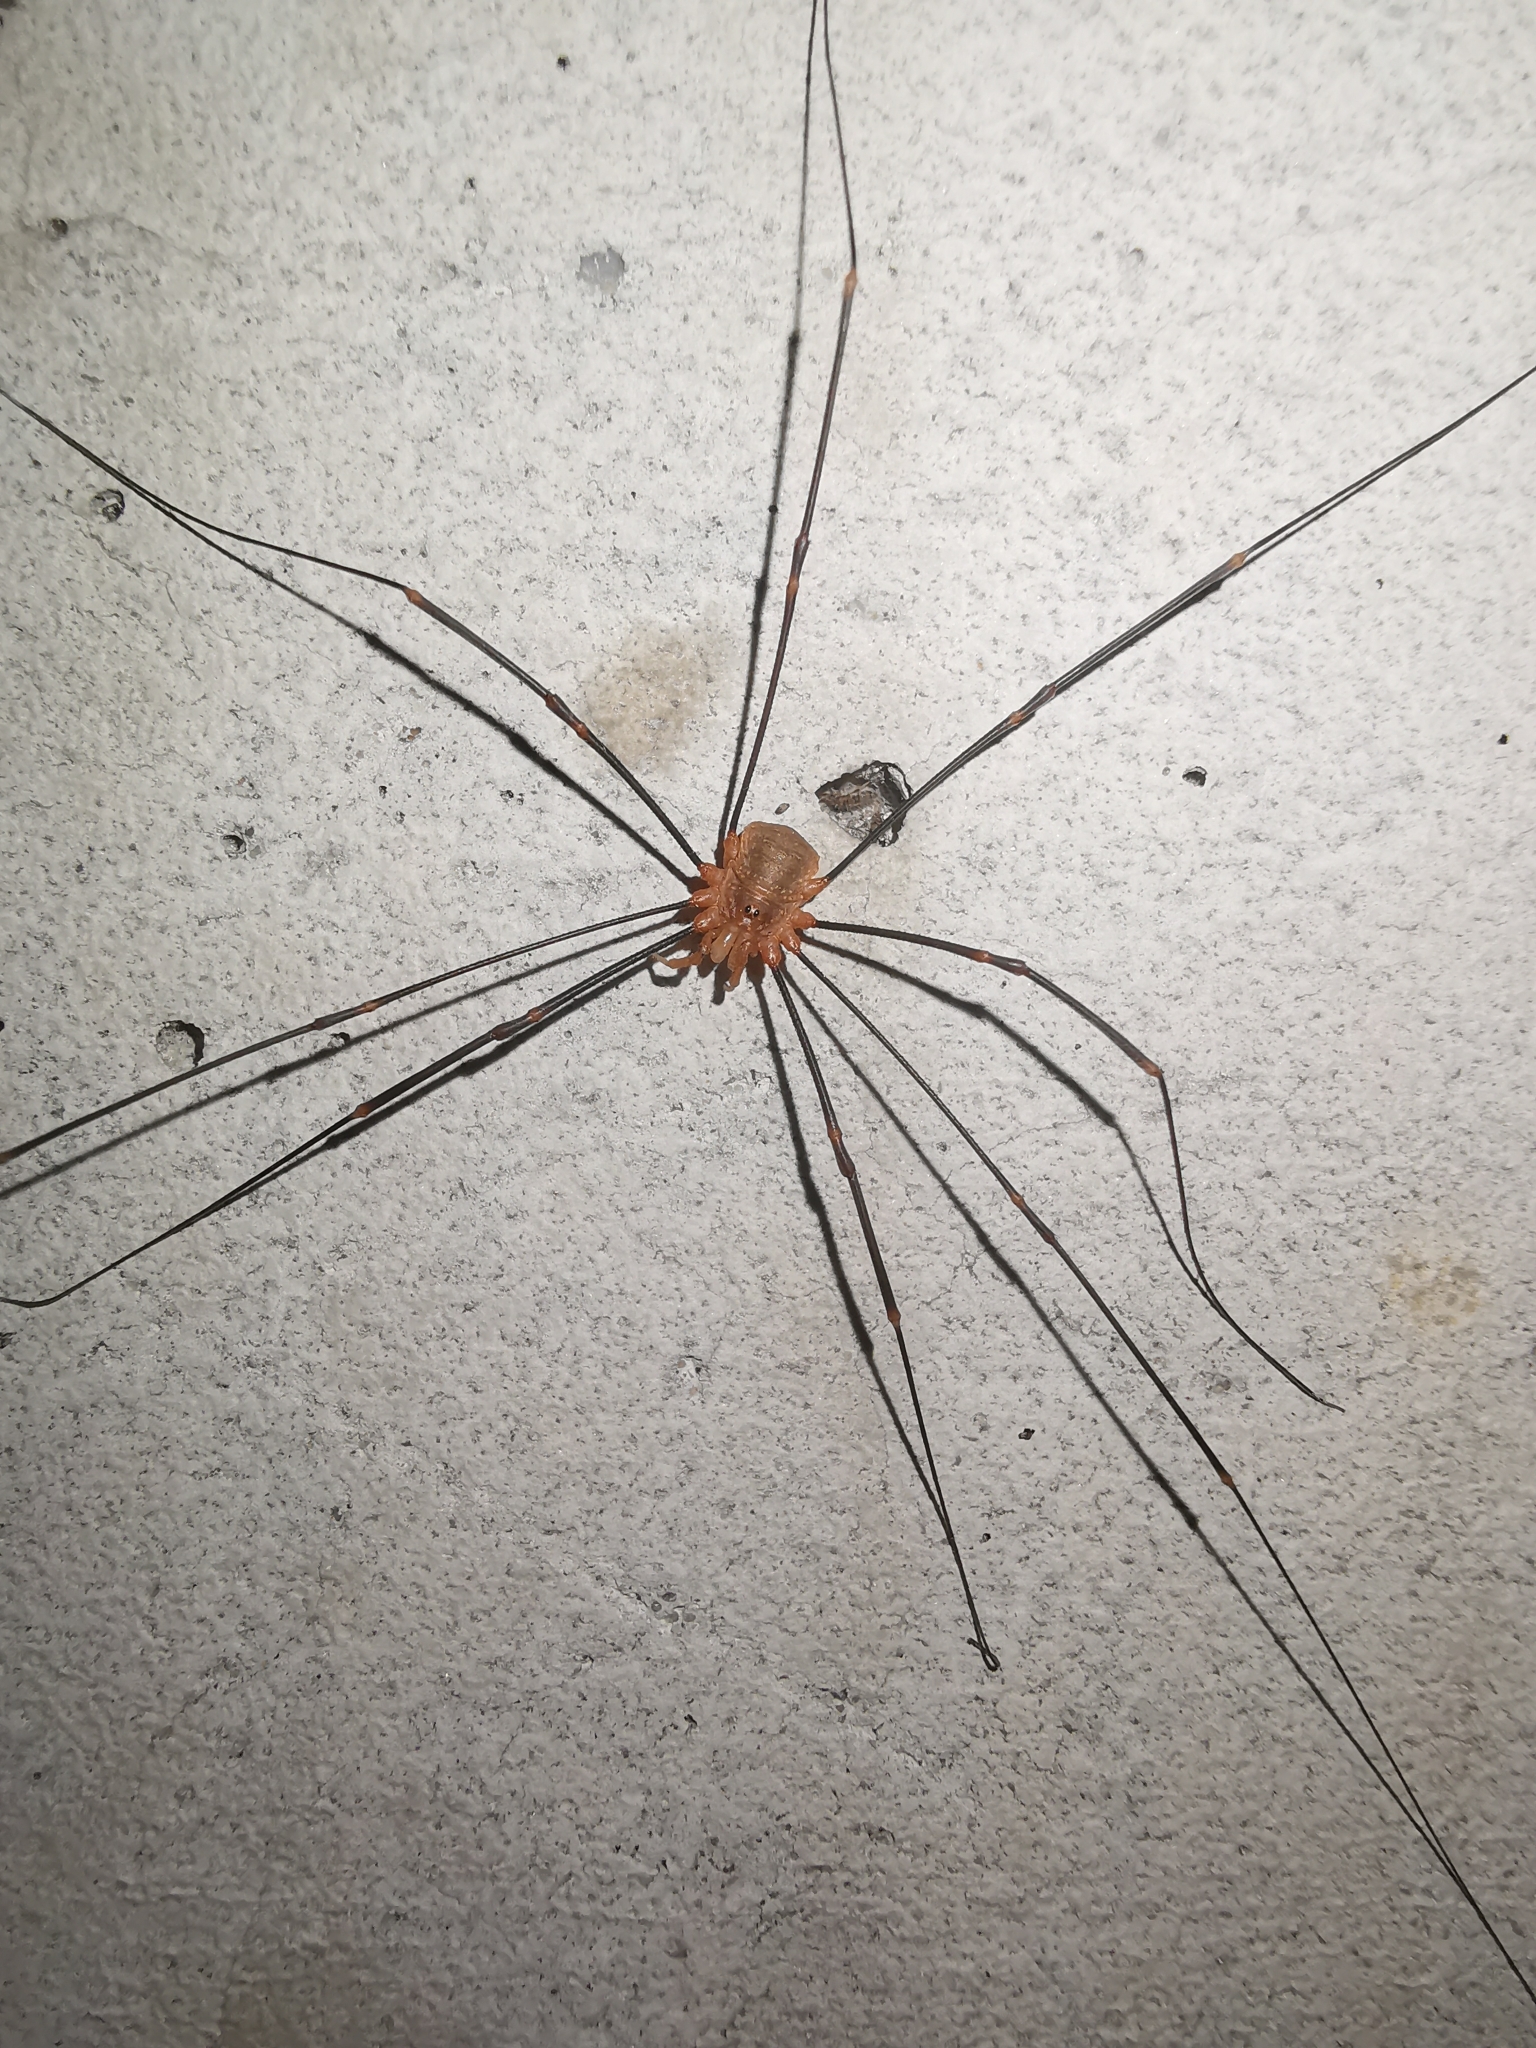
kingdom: Animalia
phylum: Arthropoda
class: Arachnida
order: Opiliones
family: Phalangiidae
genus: Opilio
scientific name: Opilio canestrinii
